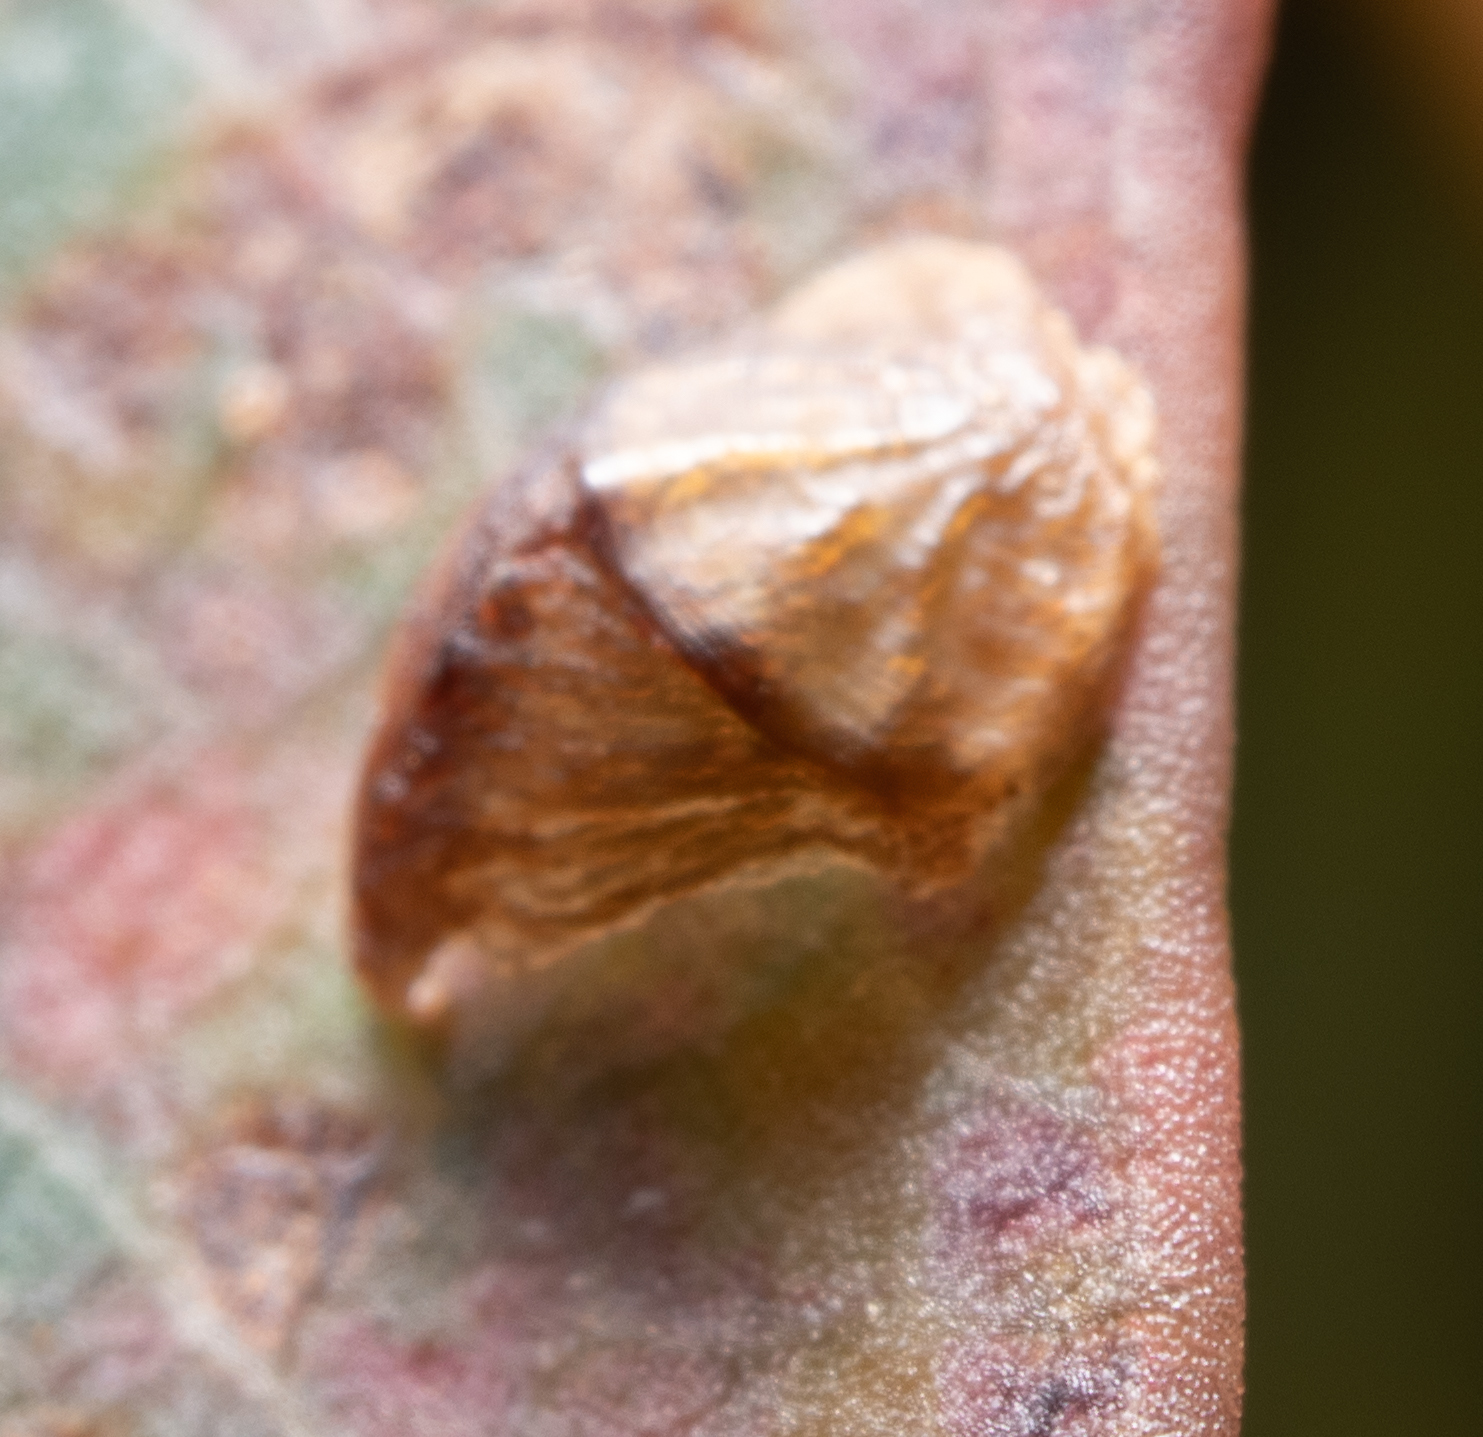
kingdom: Animalia
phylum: Arthropoda
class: Insecta
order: Hemiptera
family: Aphalaridae
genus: Cardiaspina
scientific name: Cardiaspina albicollaris
